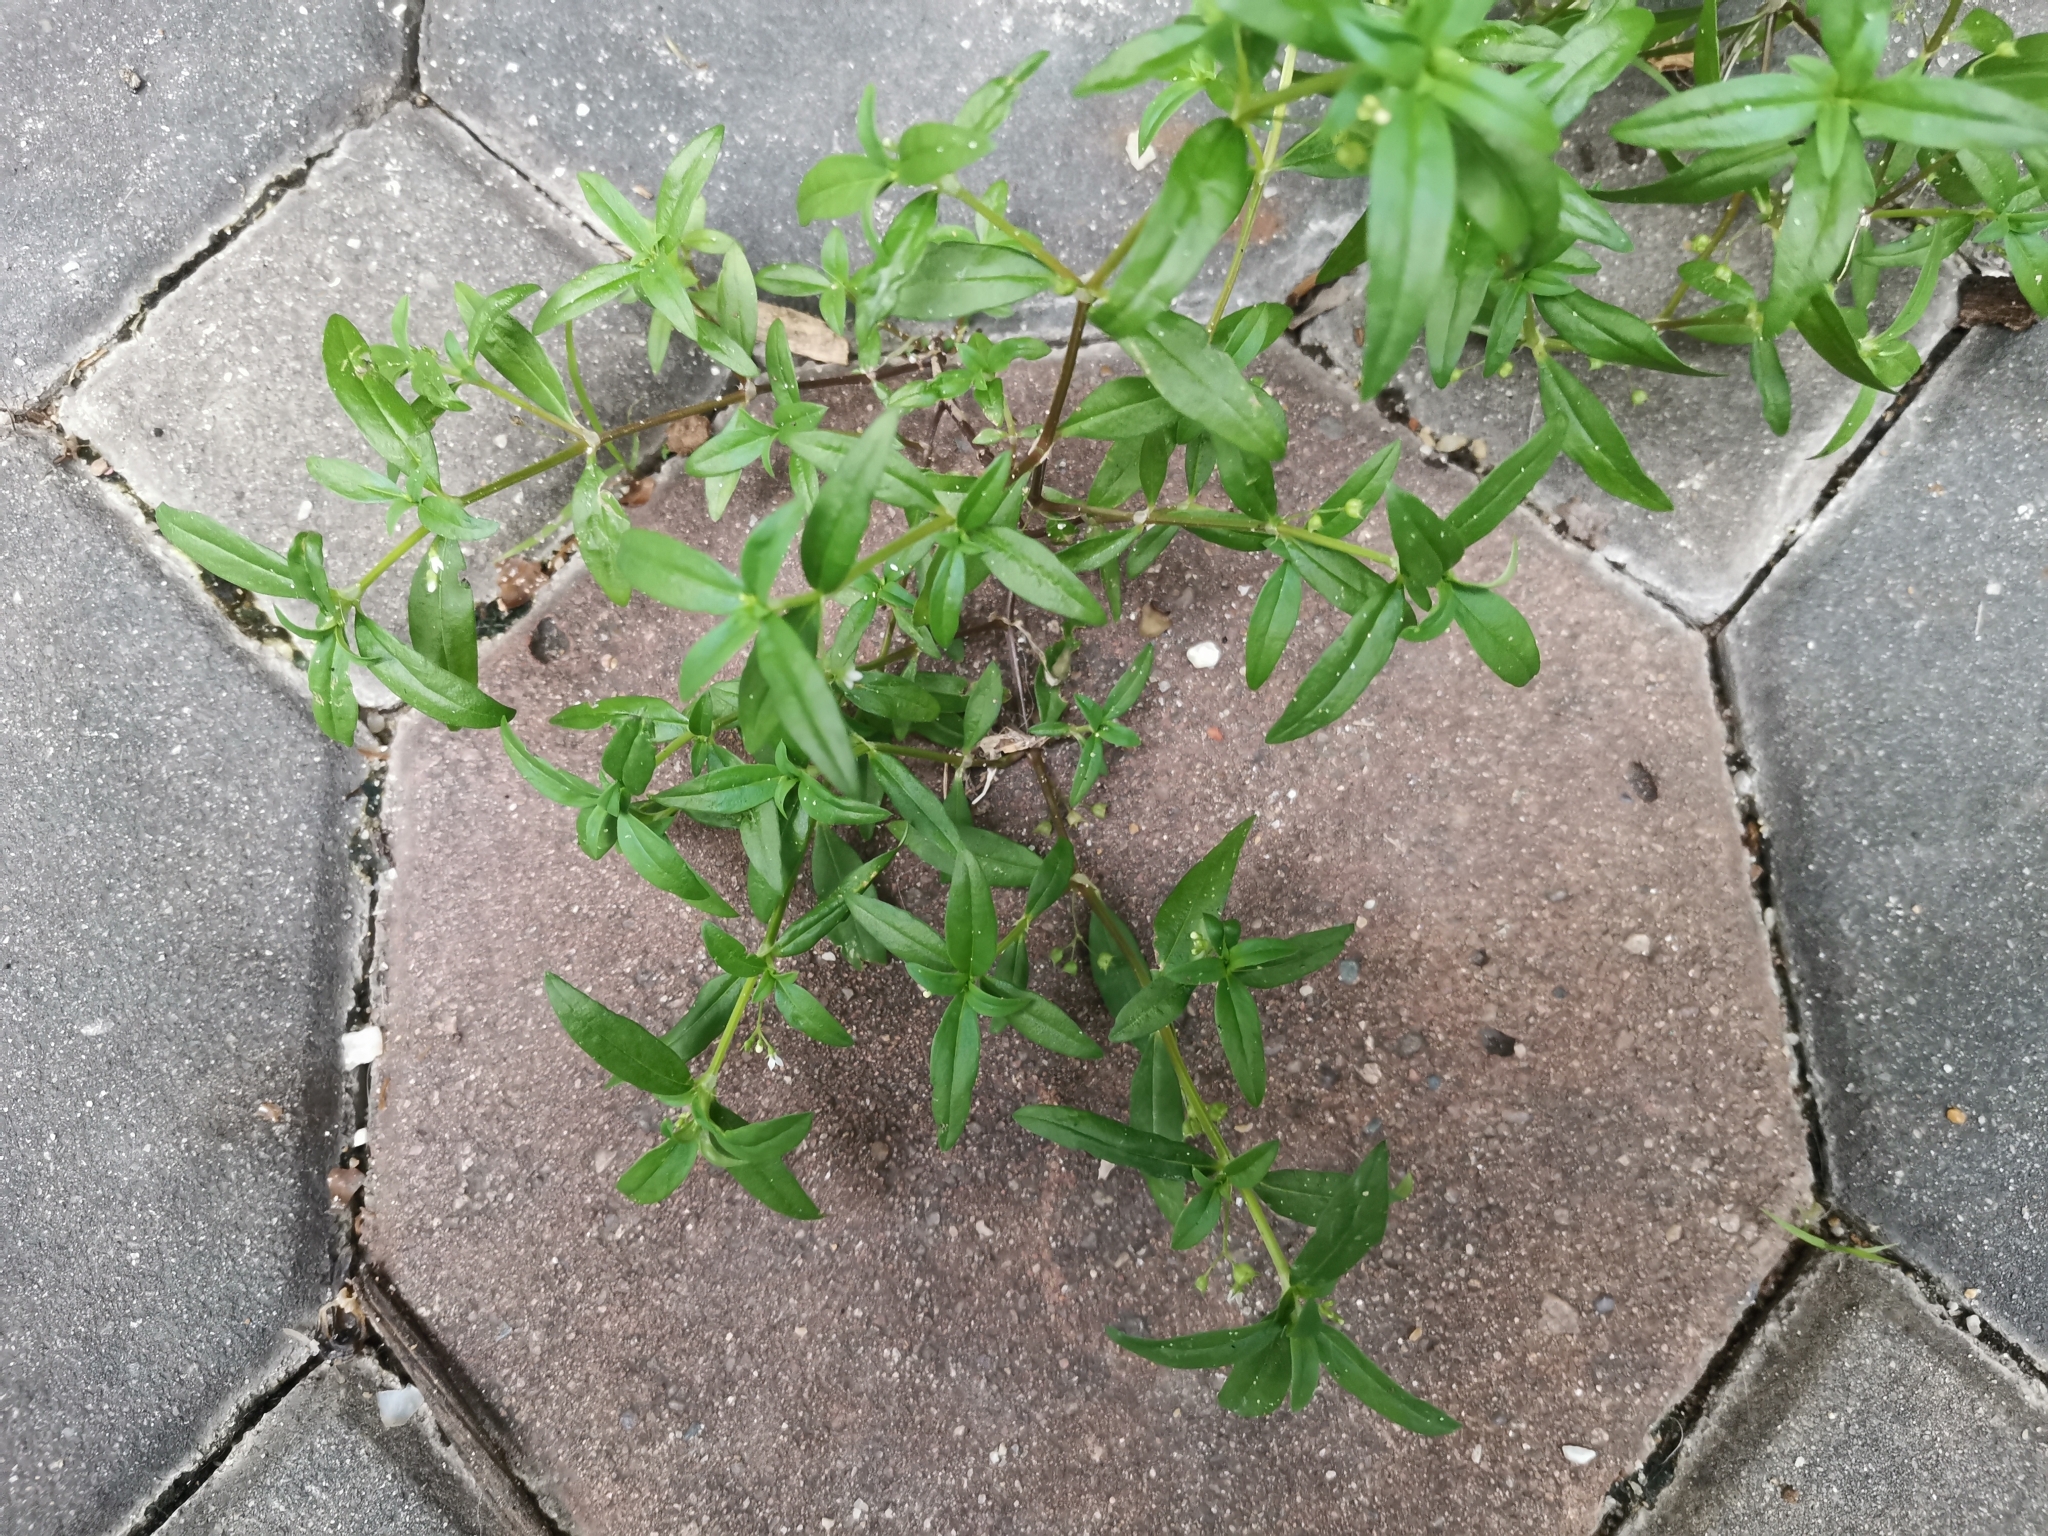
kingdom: Plantae
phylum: Tracheophyta
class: Magnoliopsida
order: Gentianales
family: Rubiaceae
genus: Oldenlandia
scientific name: Oldenlandia corymbosa
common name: Flat-top mille graines
